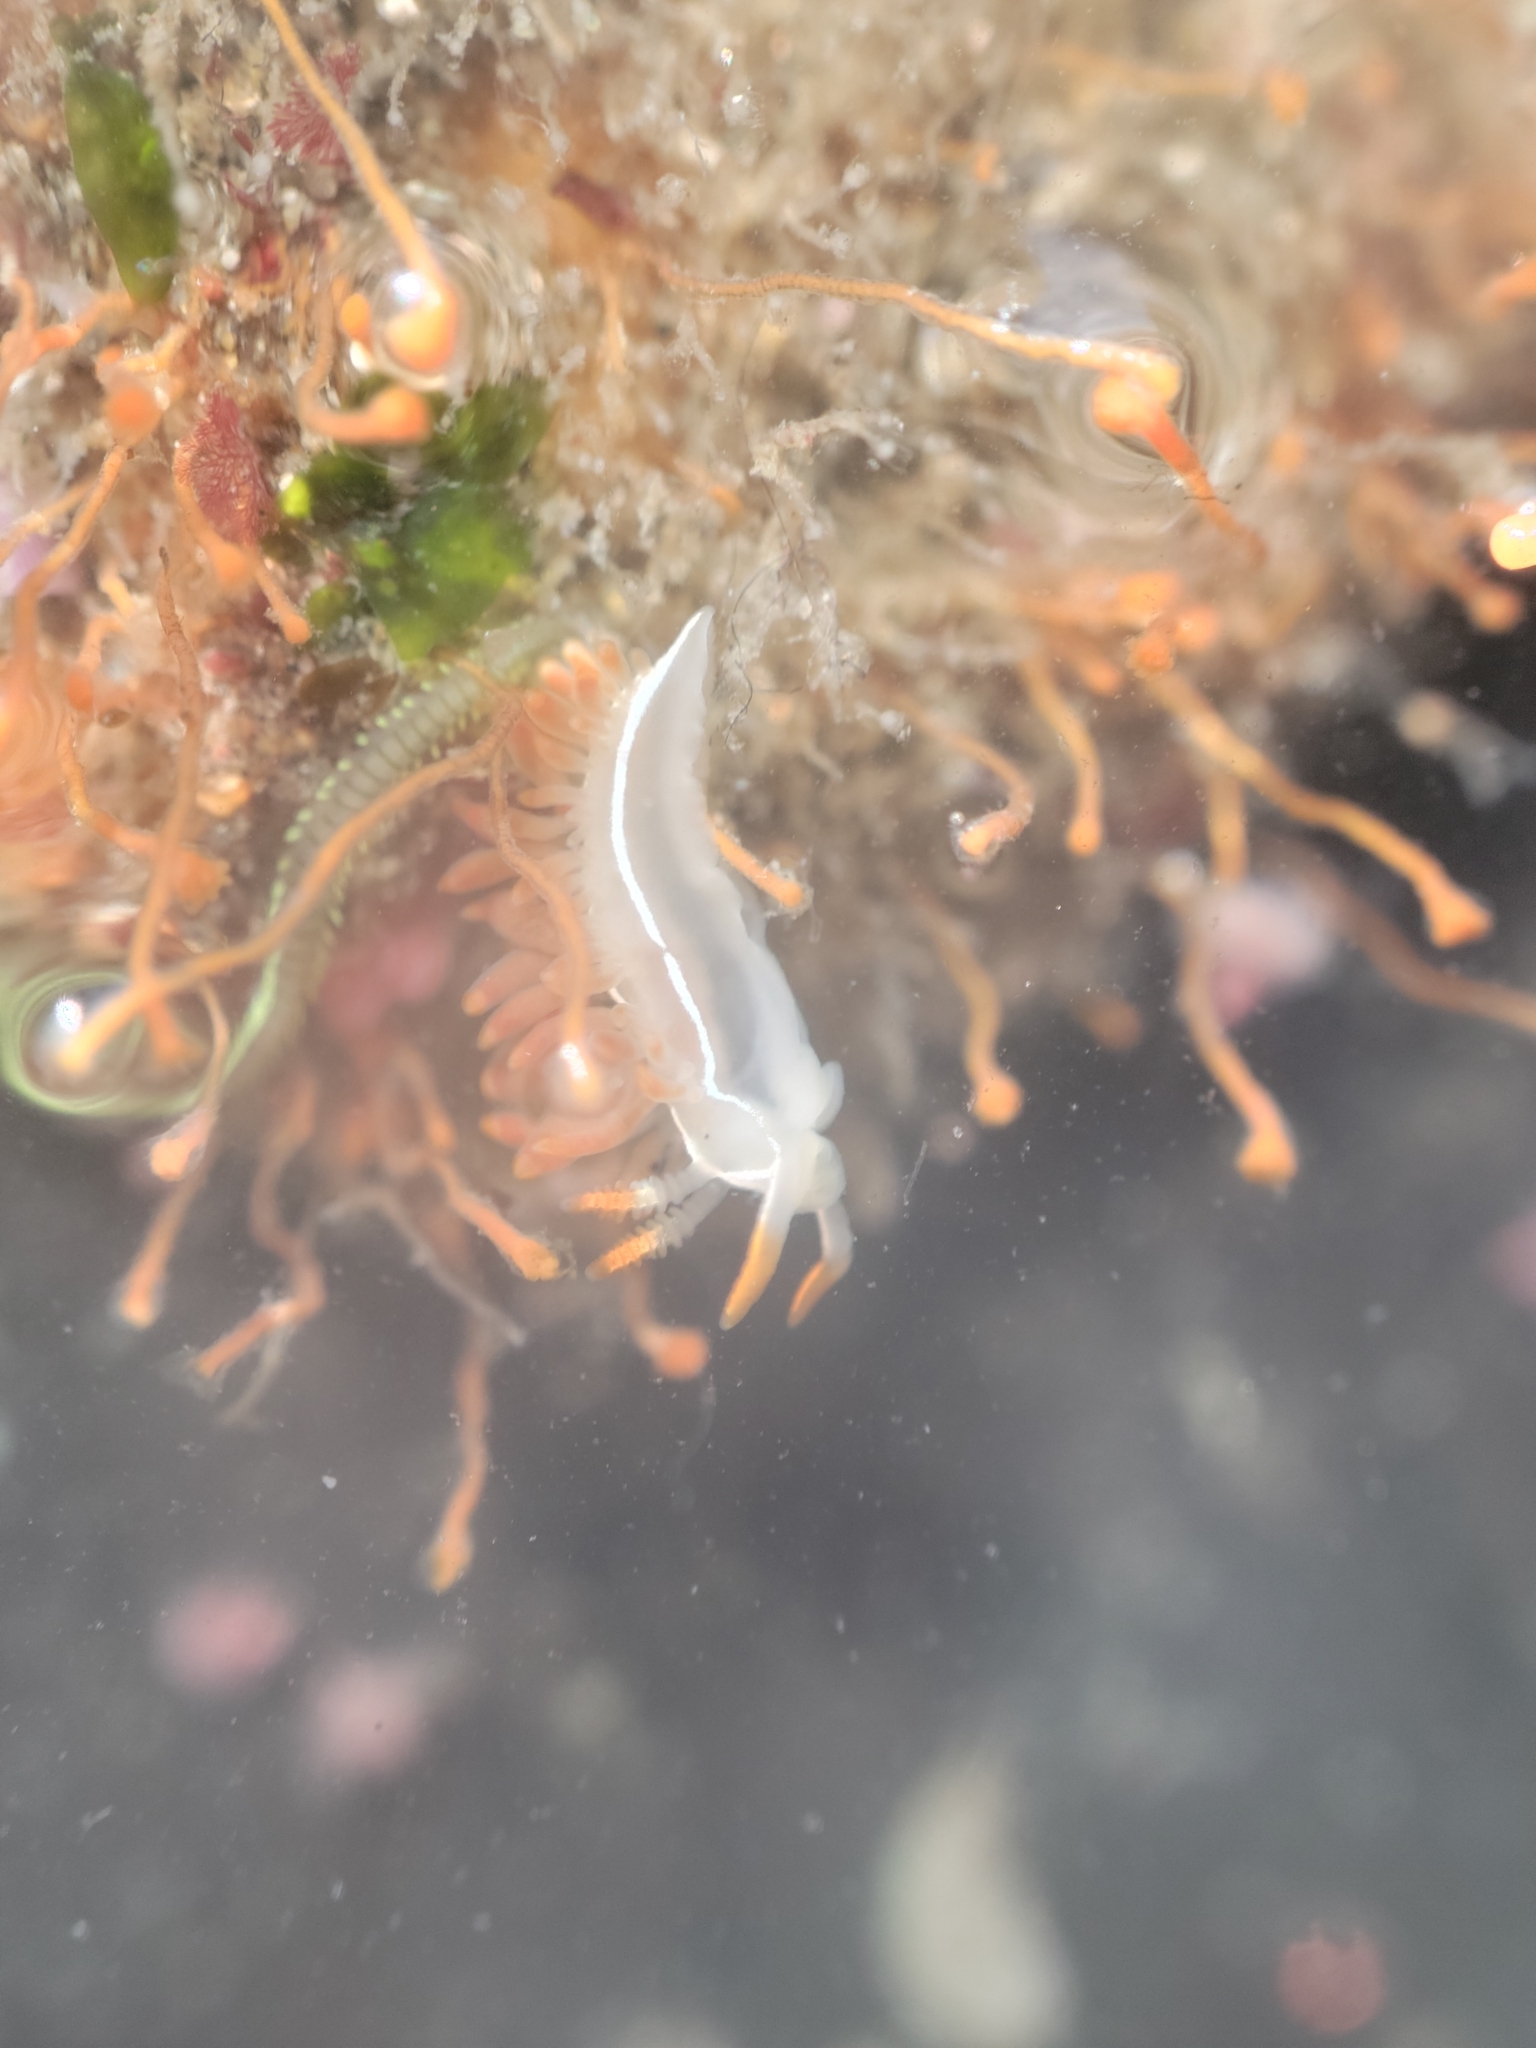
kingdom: Animalia
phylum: Mollusca
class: Gastropoda
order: Nudibranchia
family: Coryphellidae
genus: Coryphella
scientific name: Coryphella trilineata
